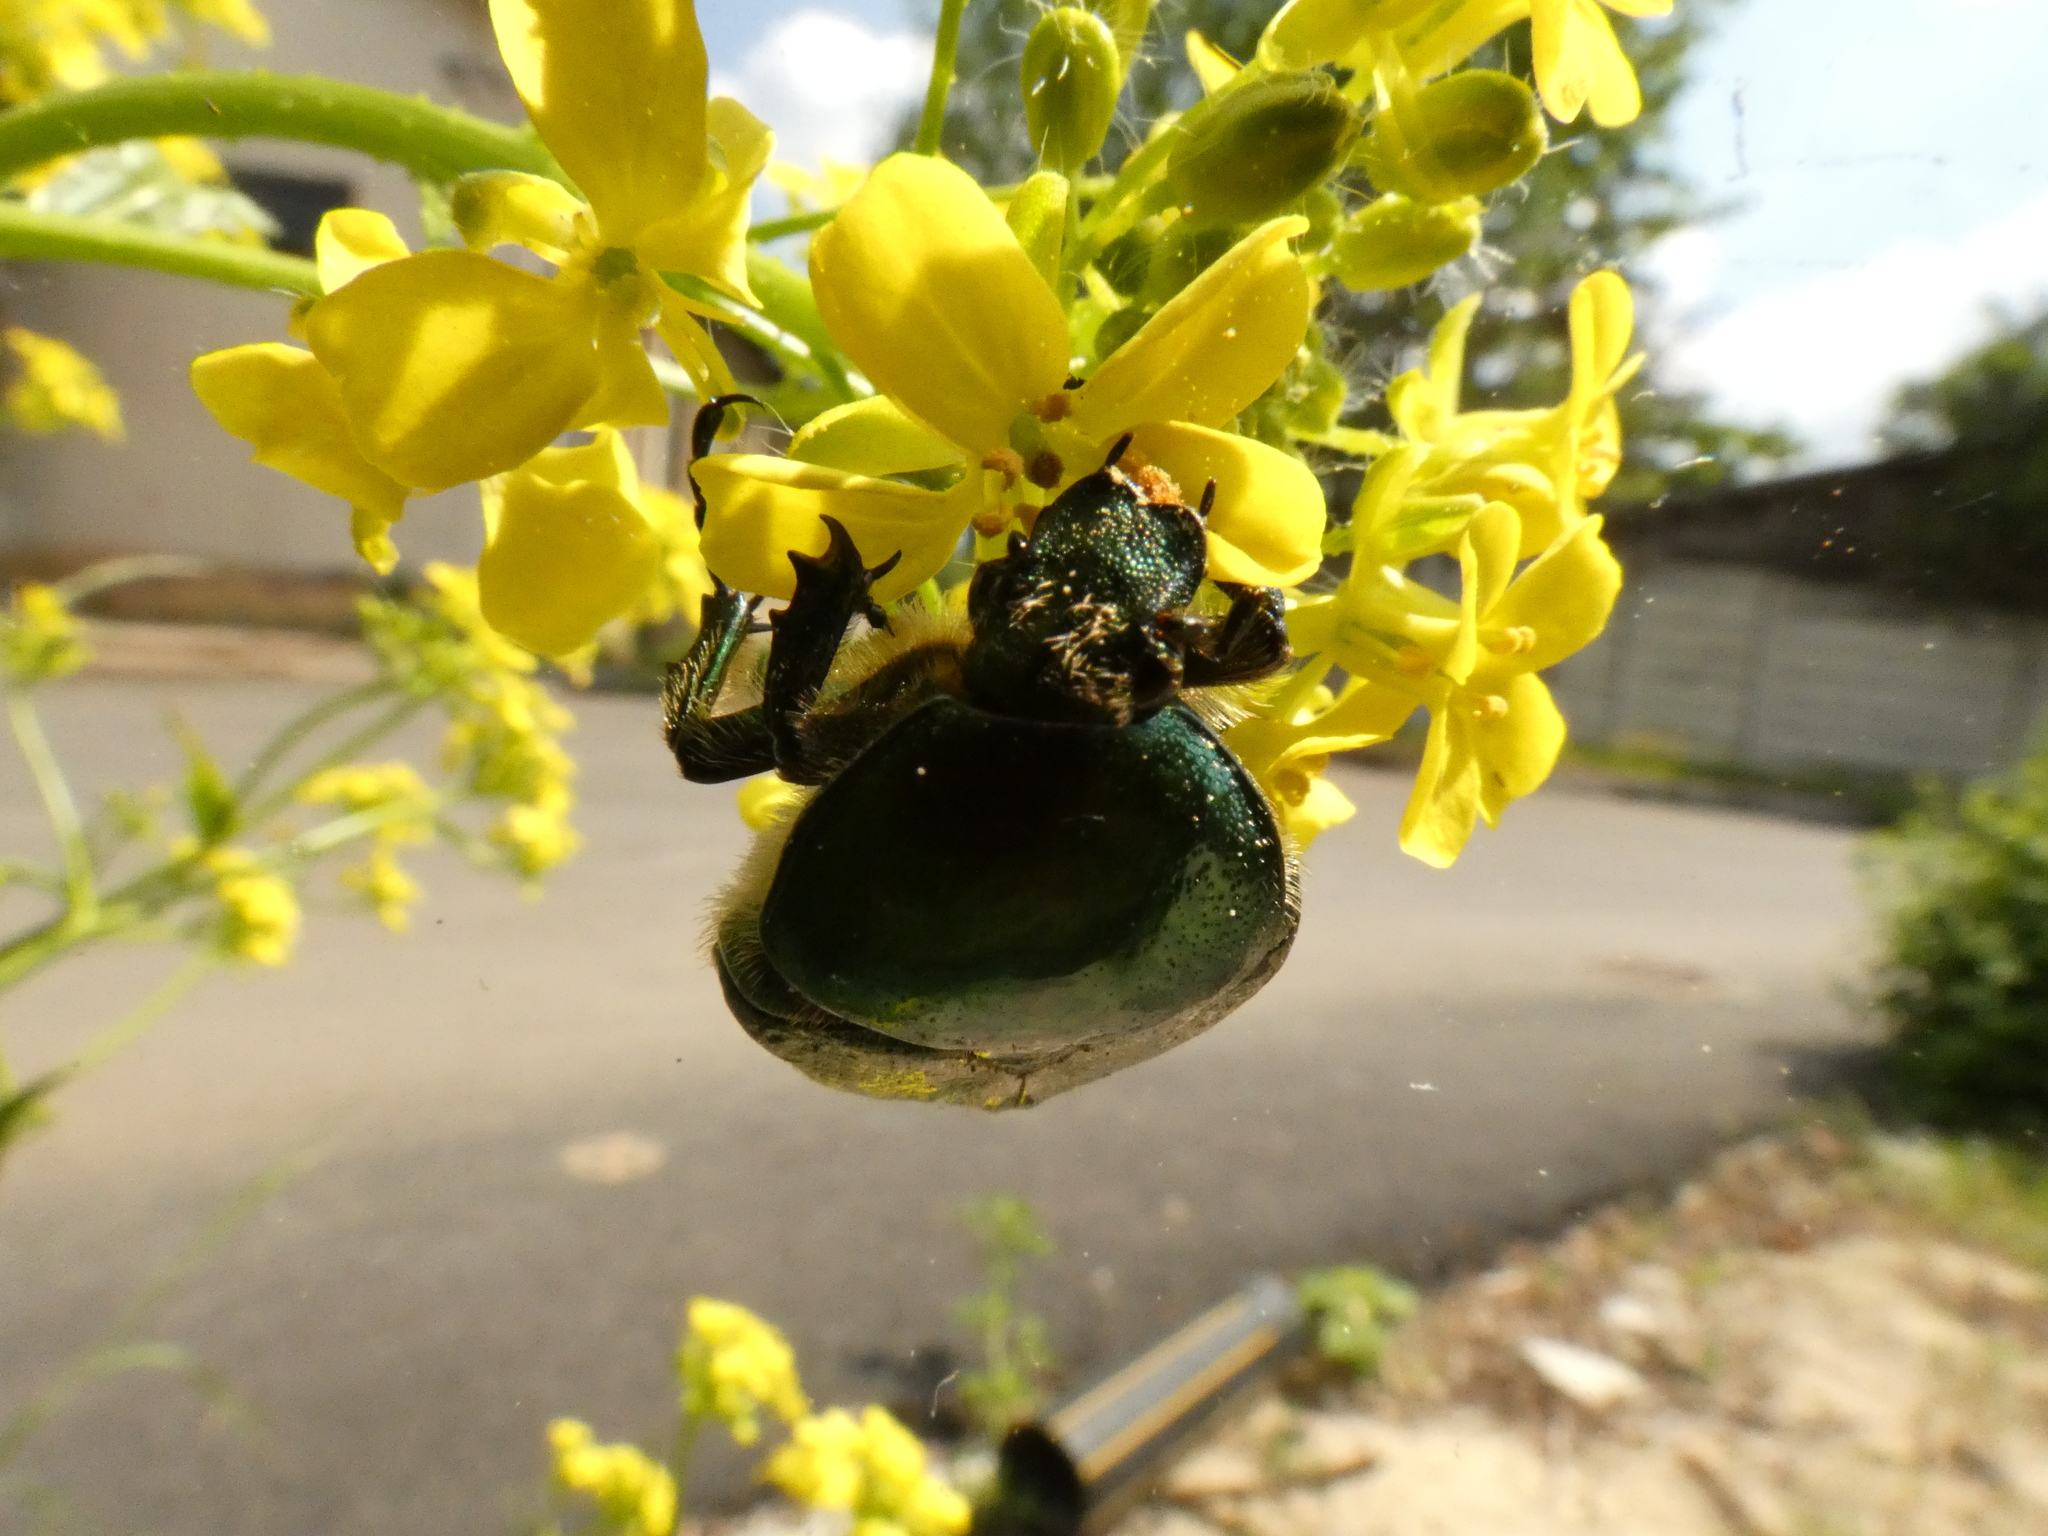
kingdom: Animalia
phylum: Arthropoda
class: Insecta
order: Coleoptera
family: Scarabaeidae
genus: Cetonia
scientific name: Cetonia aurata
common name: Rose chafer
